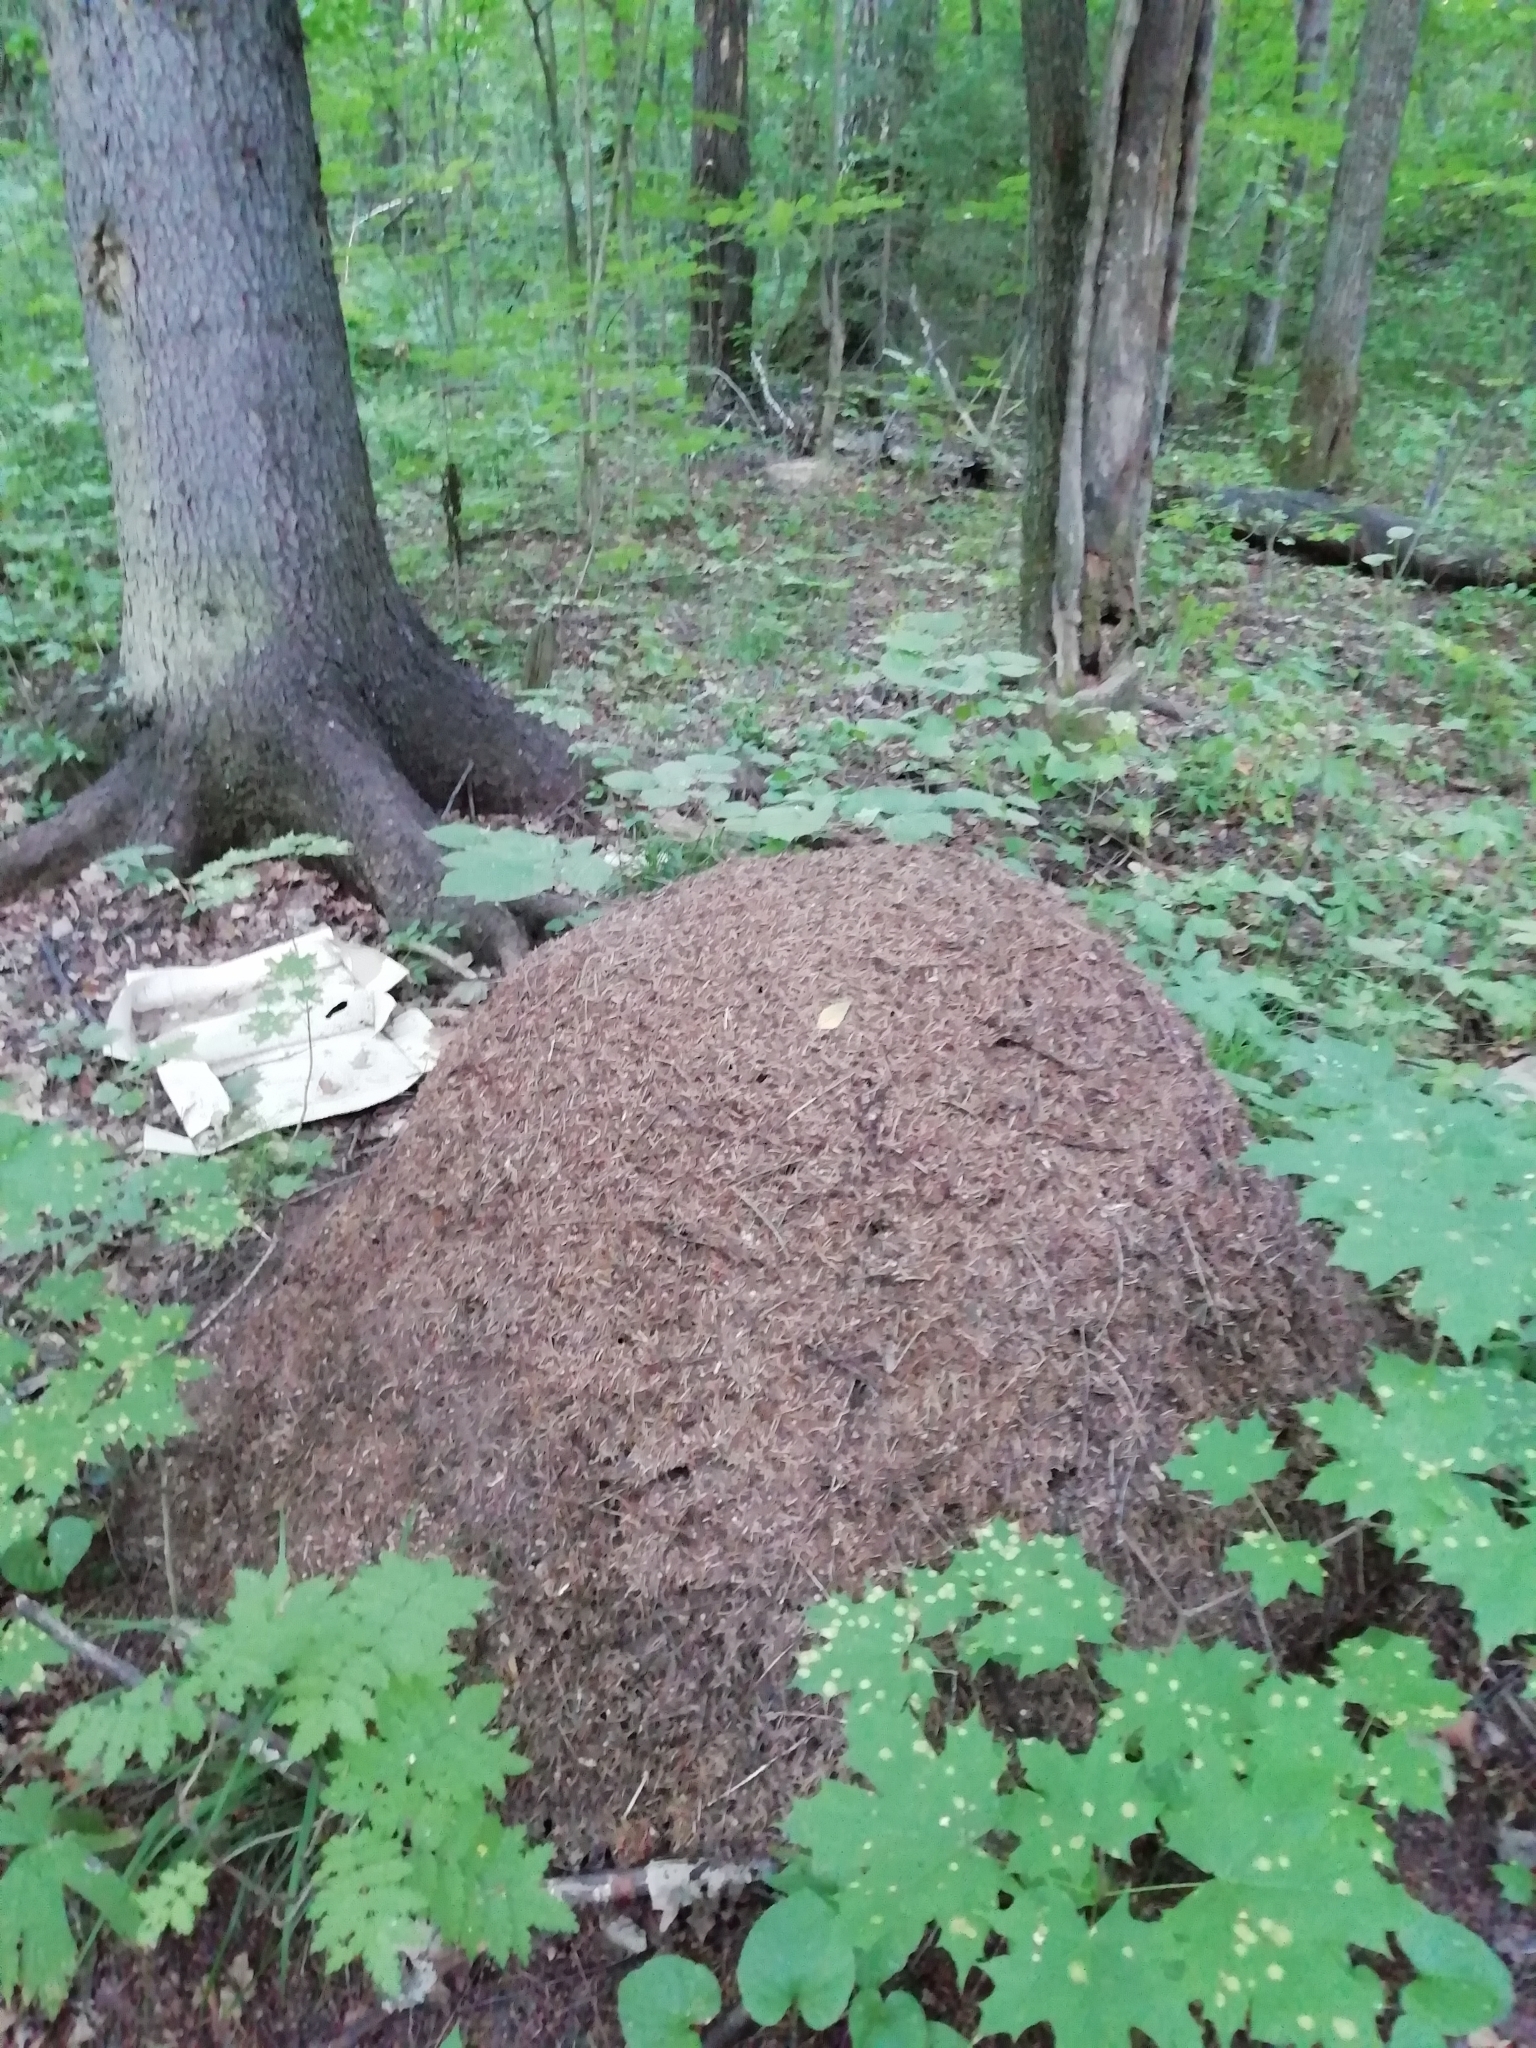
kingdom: Animalia
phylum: Arthropoda
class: Insecta
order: Hymenoptera
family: Formicidae
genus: Formica
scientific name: Formica rufa
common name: Red wood ant
